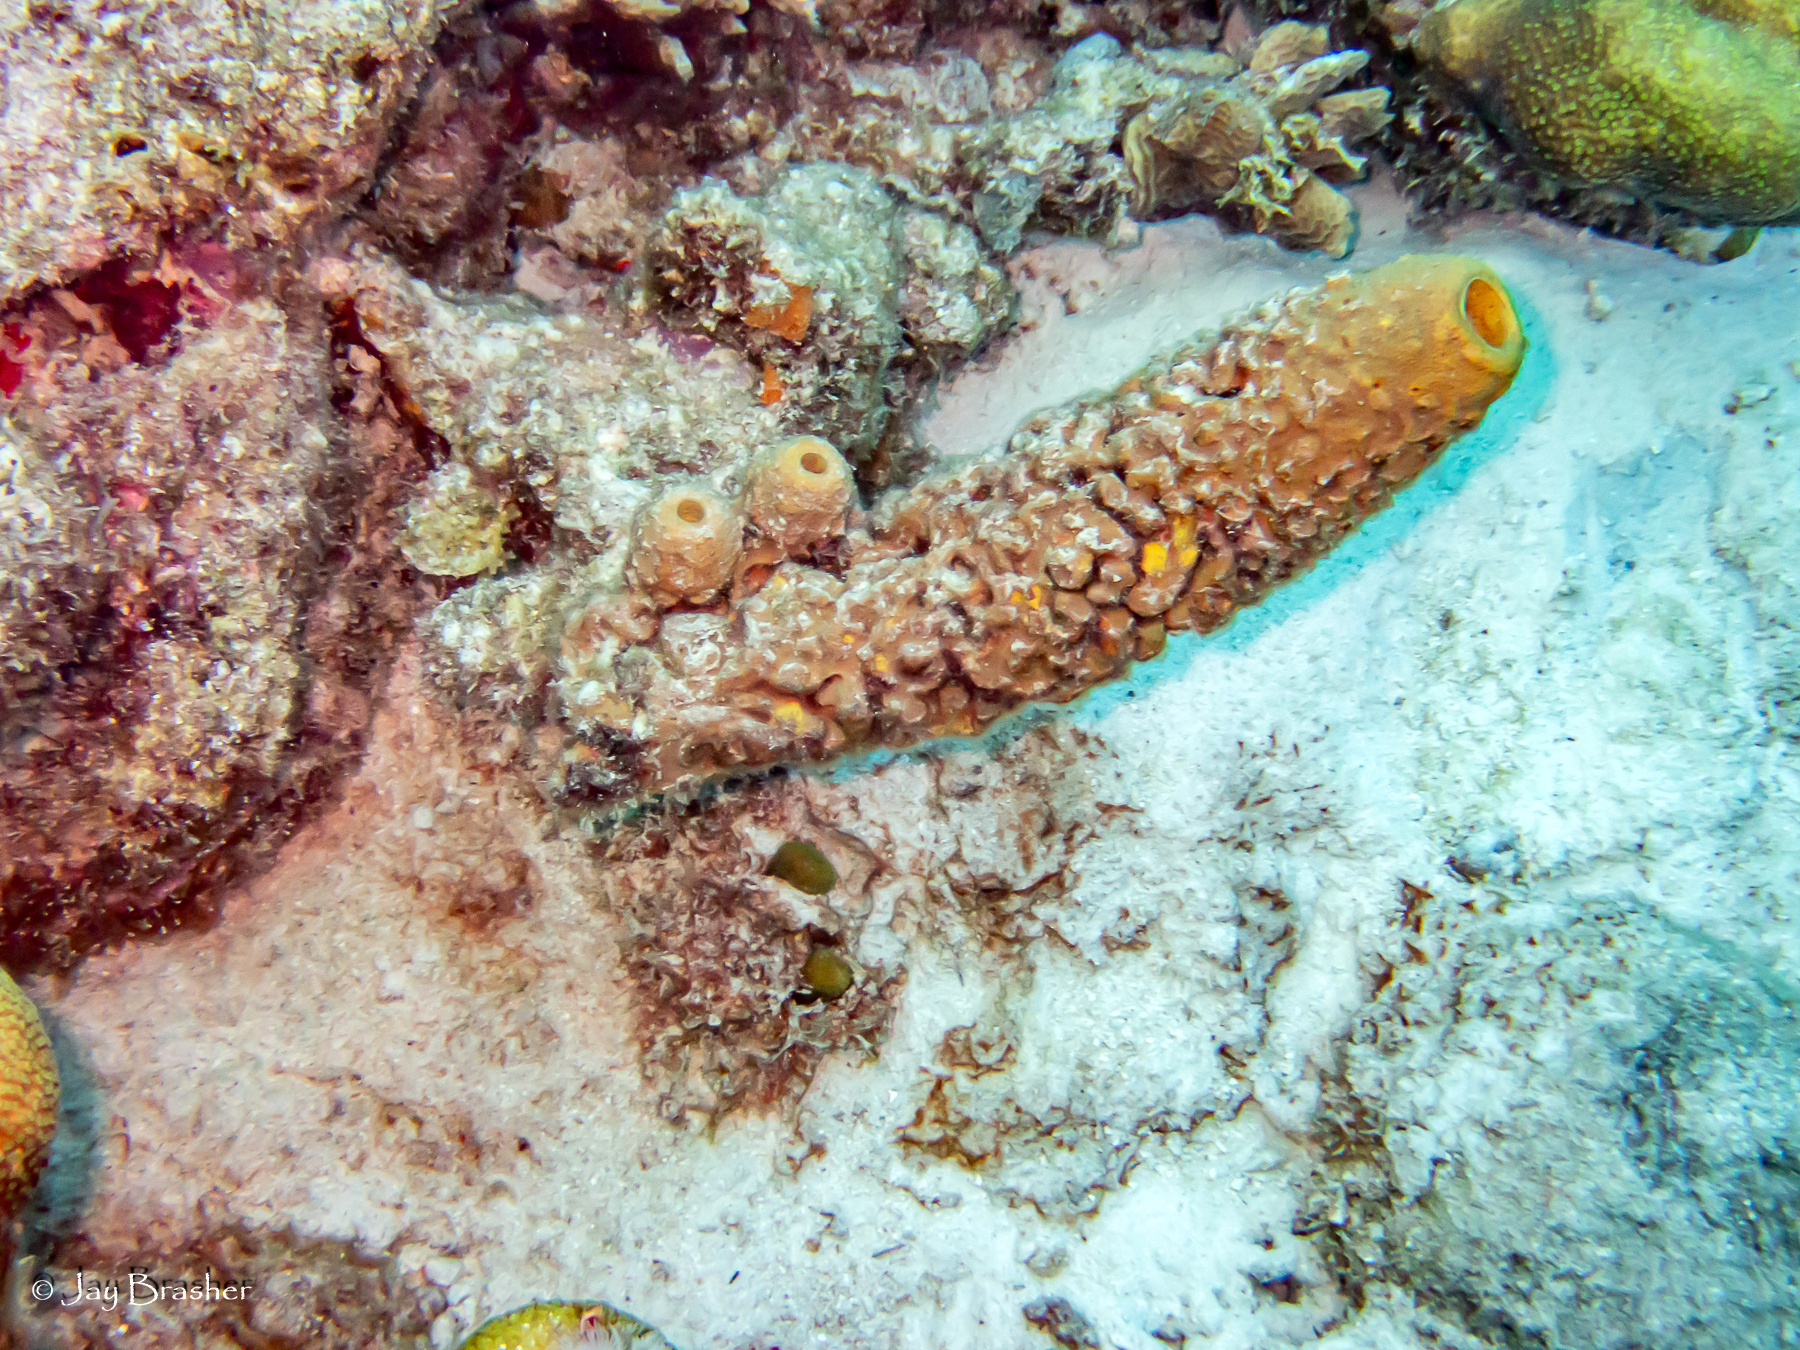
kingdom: Animalia
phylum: Porifera
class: Demospongiae
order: Verongiida
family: Aplysinidae
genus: Aplysina
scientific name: Aplysina archeri
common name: Stove-pipe sponge
